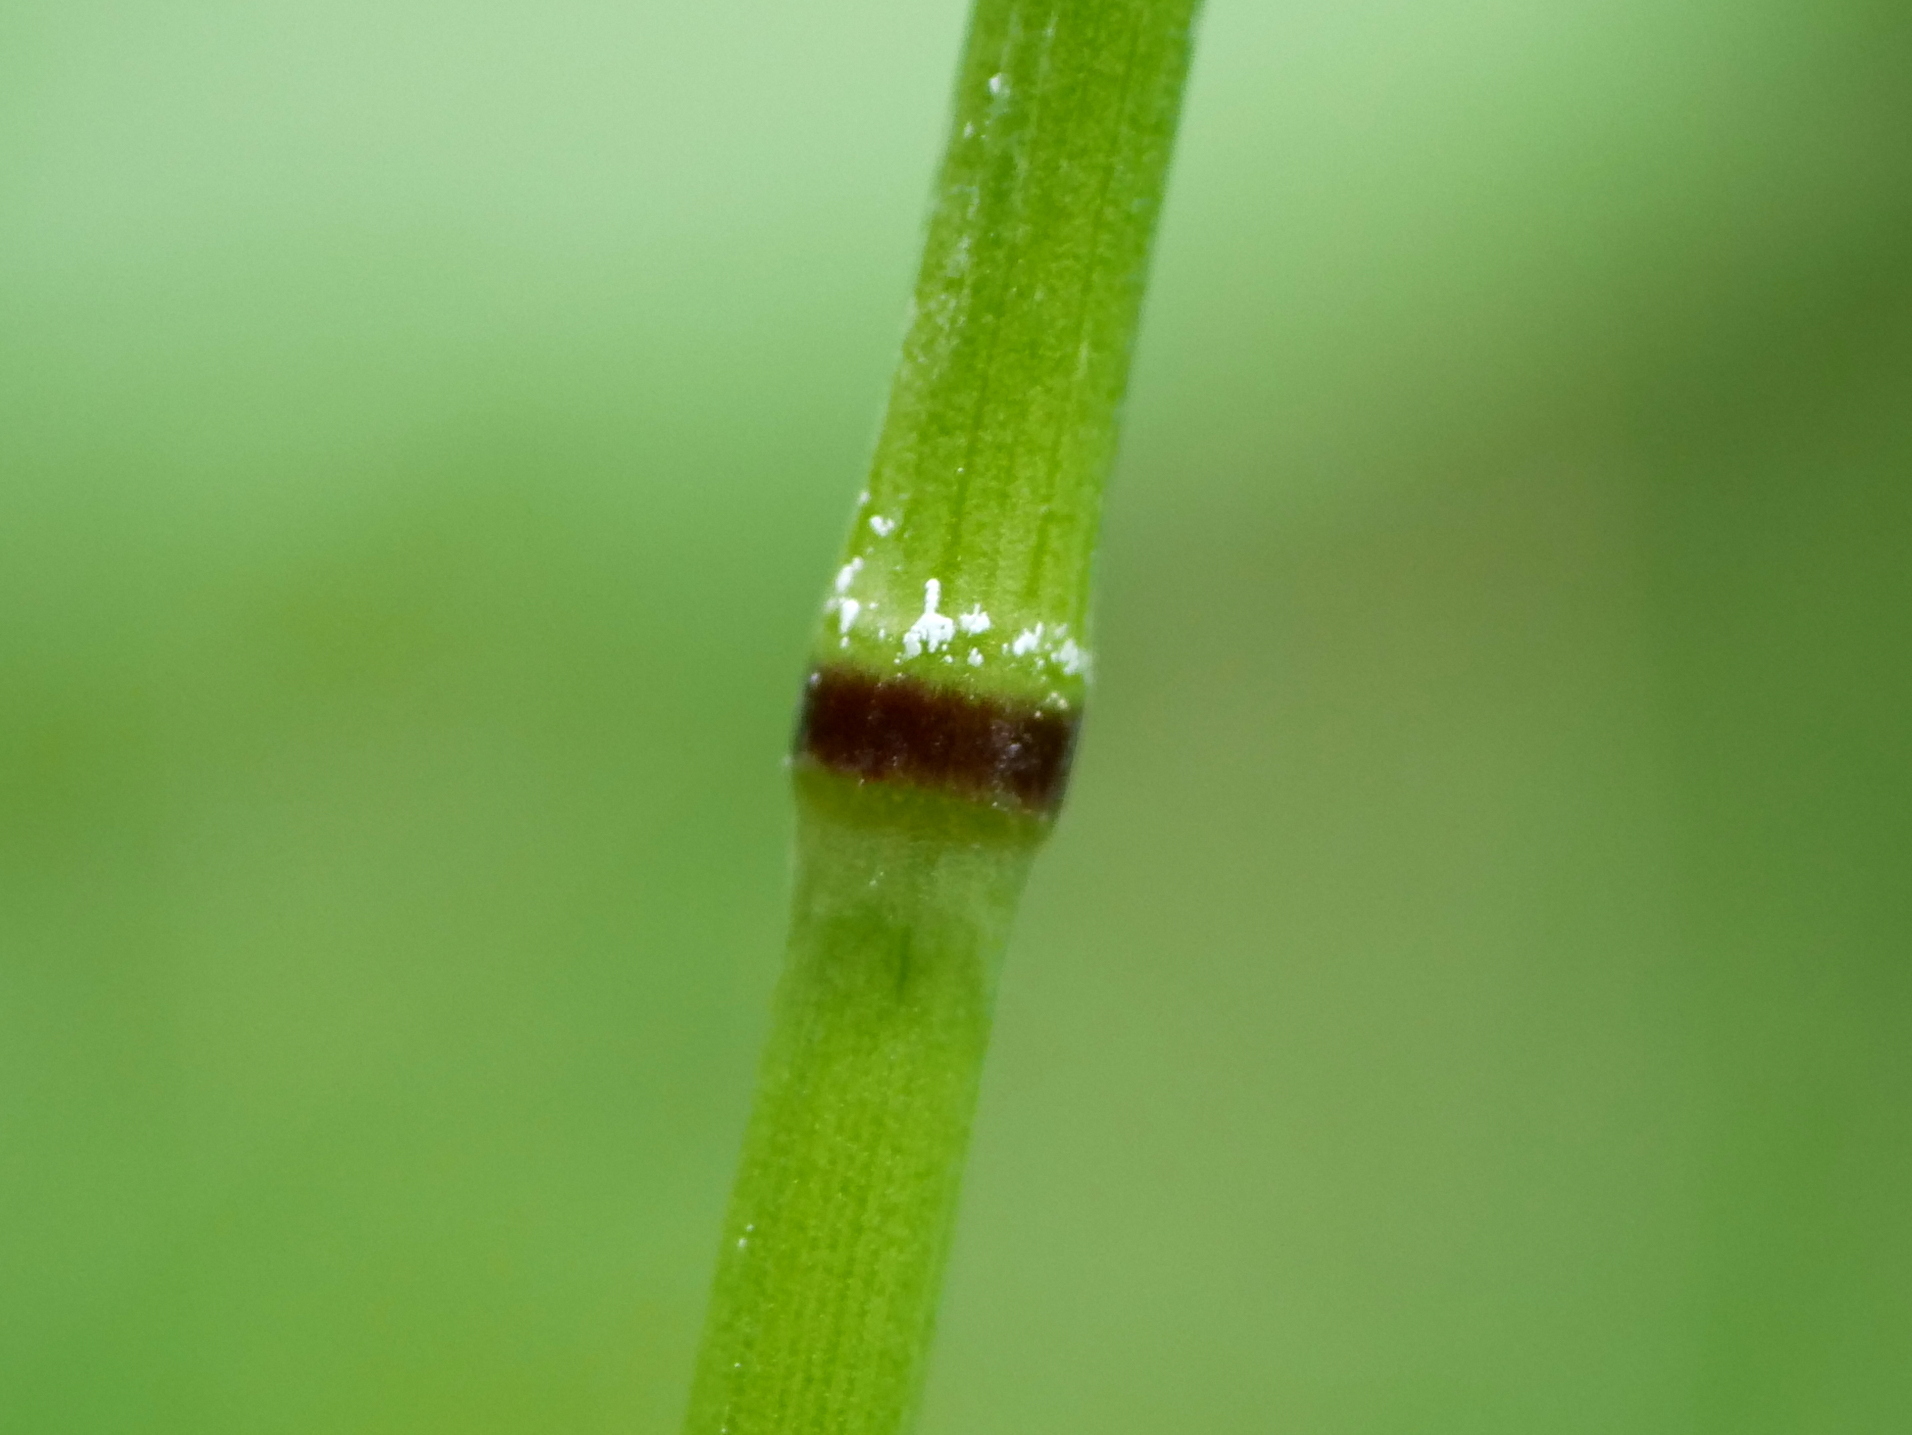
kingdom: Plantae
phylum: Tracheophyta
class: Liliopsida
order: Poales
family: Poaceae
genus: Milium
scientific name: Milium effusum
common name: Wood millet
